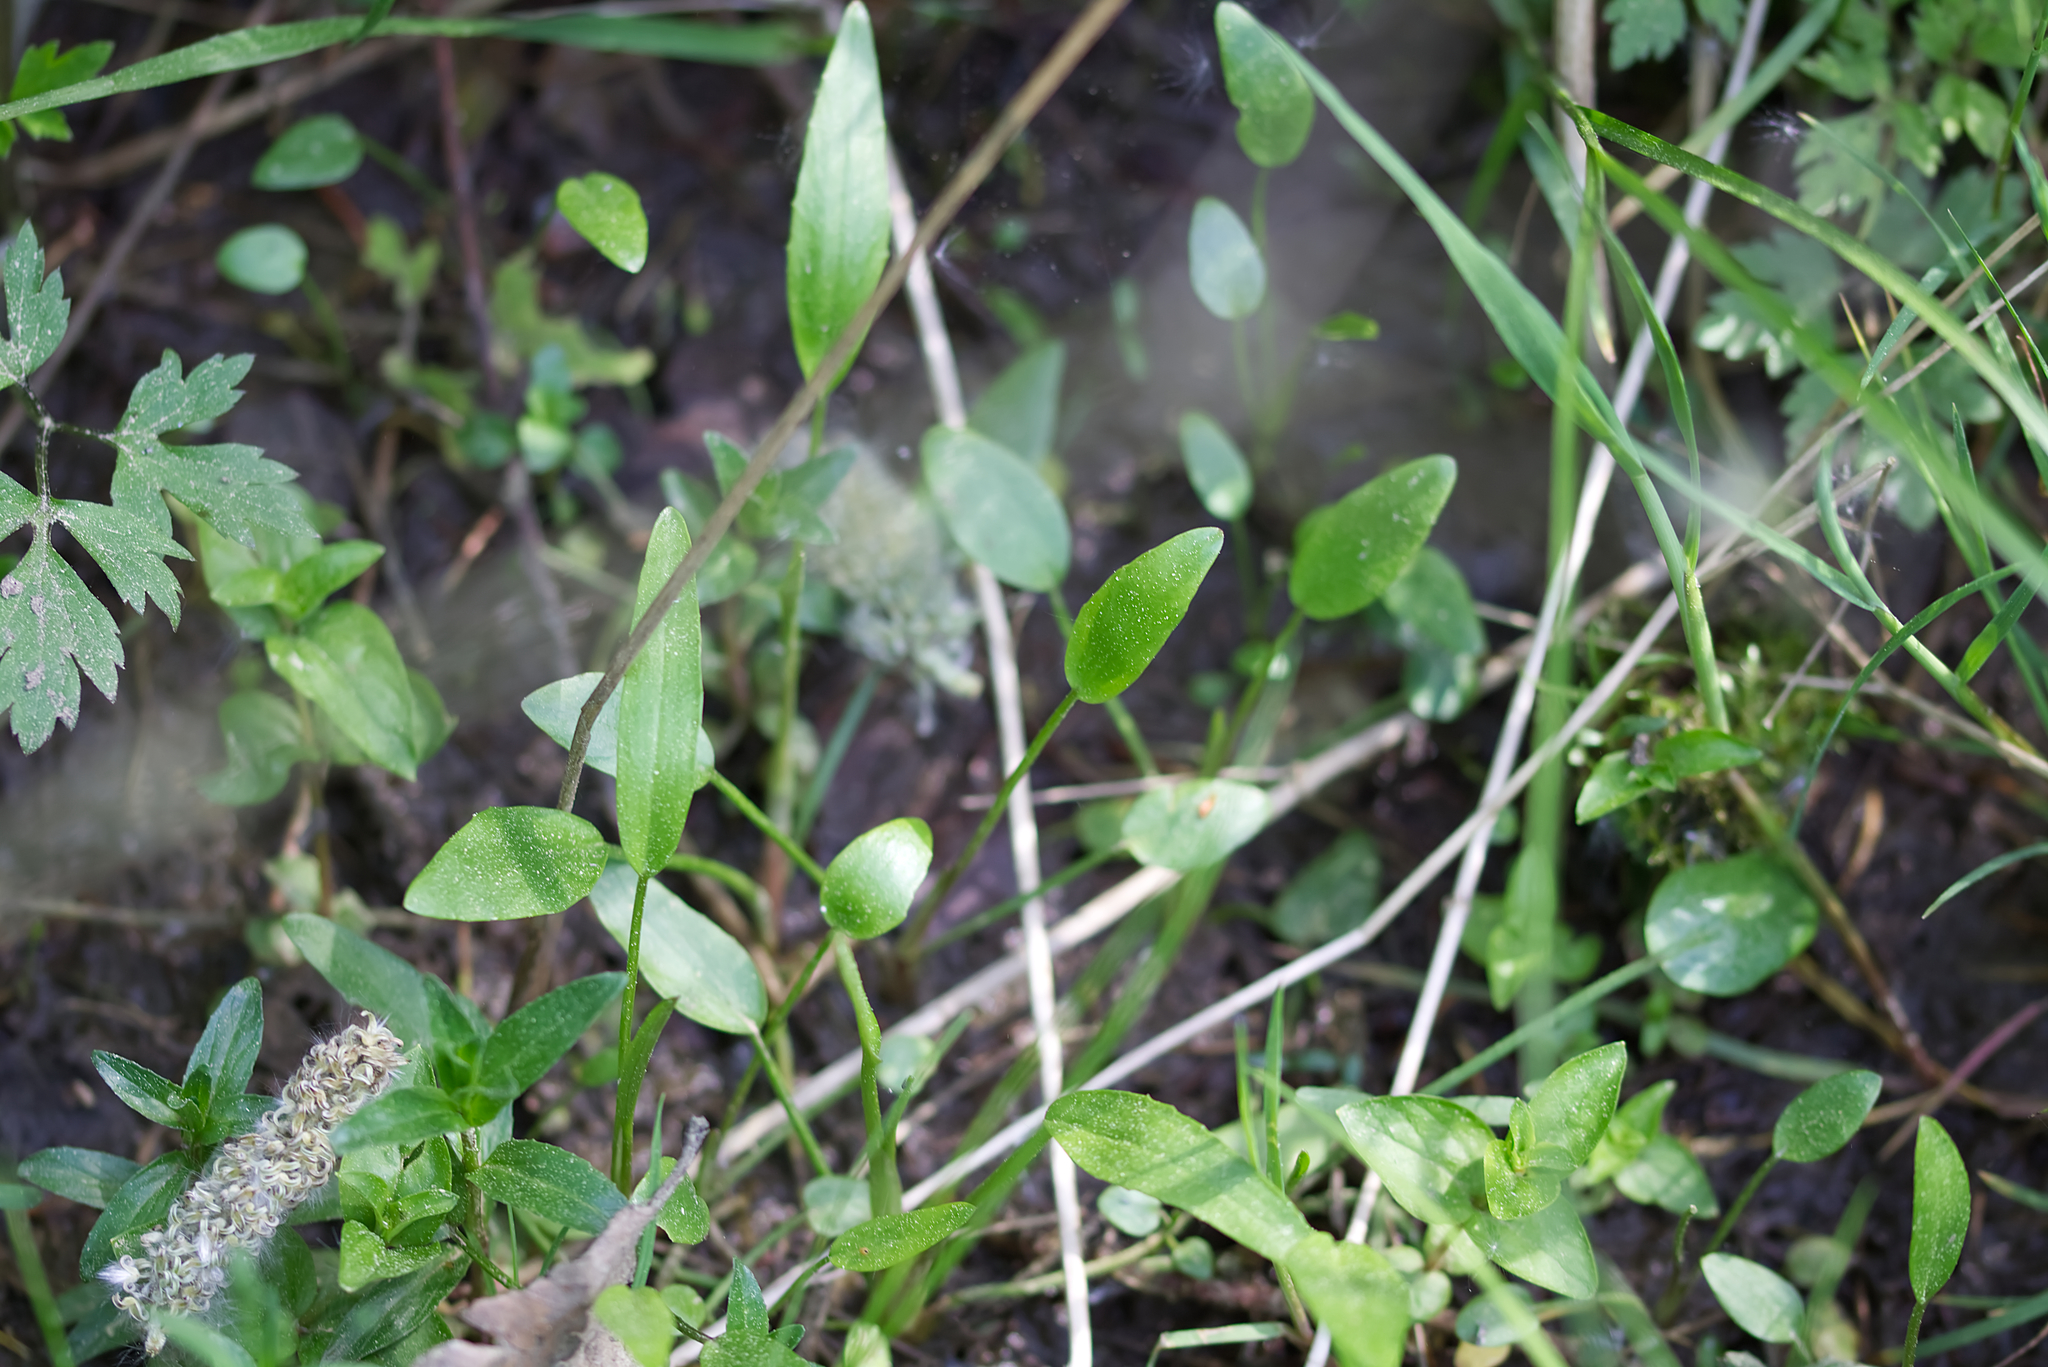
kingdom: Plantae
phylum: Tracheophyta
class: Magnoliopsida
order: Ranunculales
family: Ranunculaceae
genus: Ranunculus
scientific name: Ranunculus flammula
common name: Lesser spearwort
